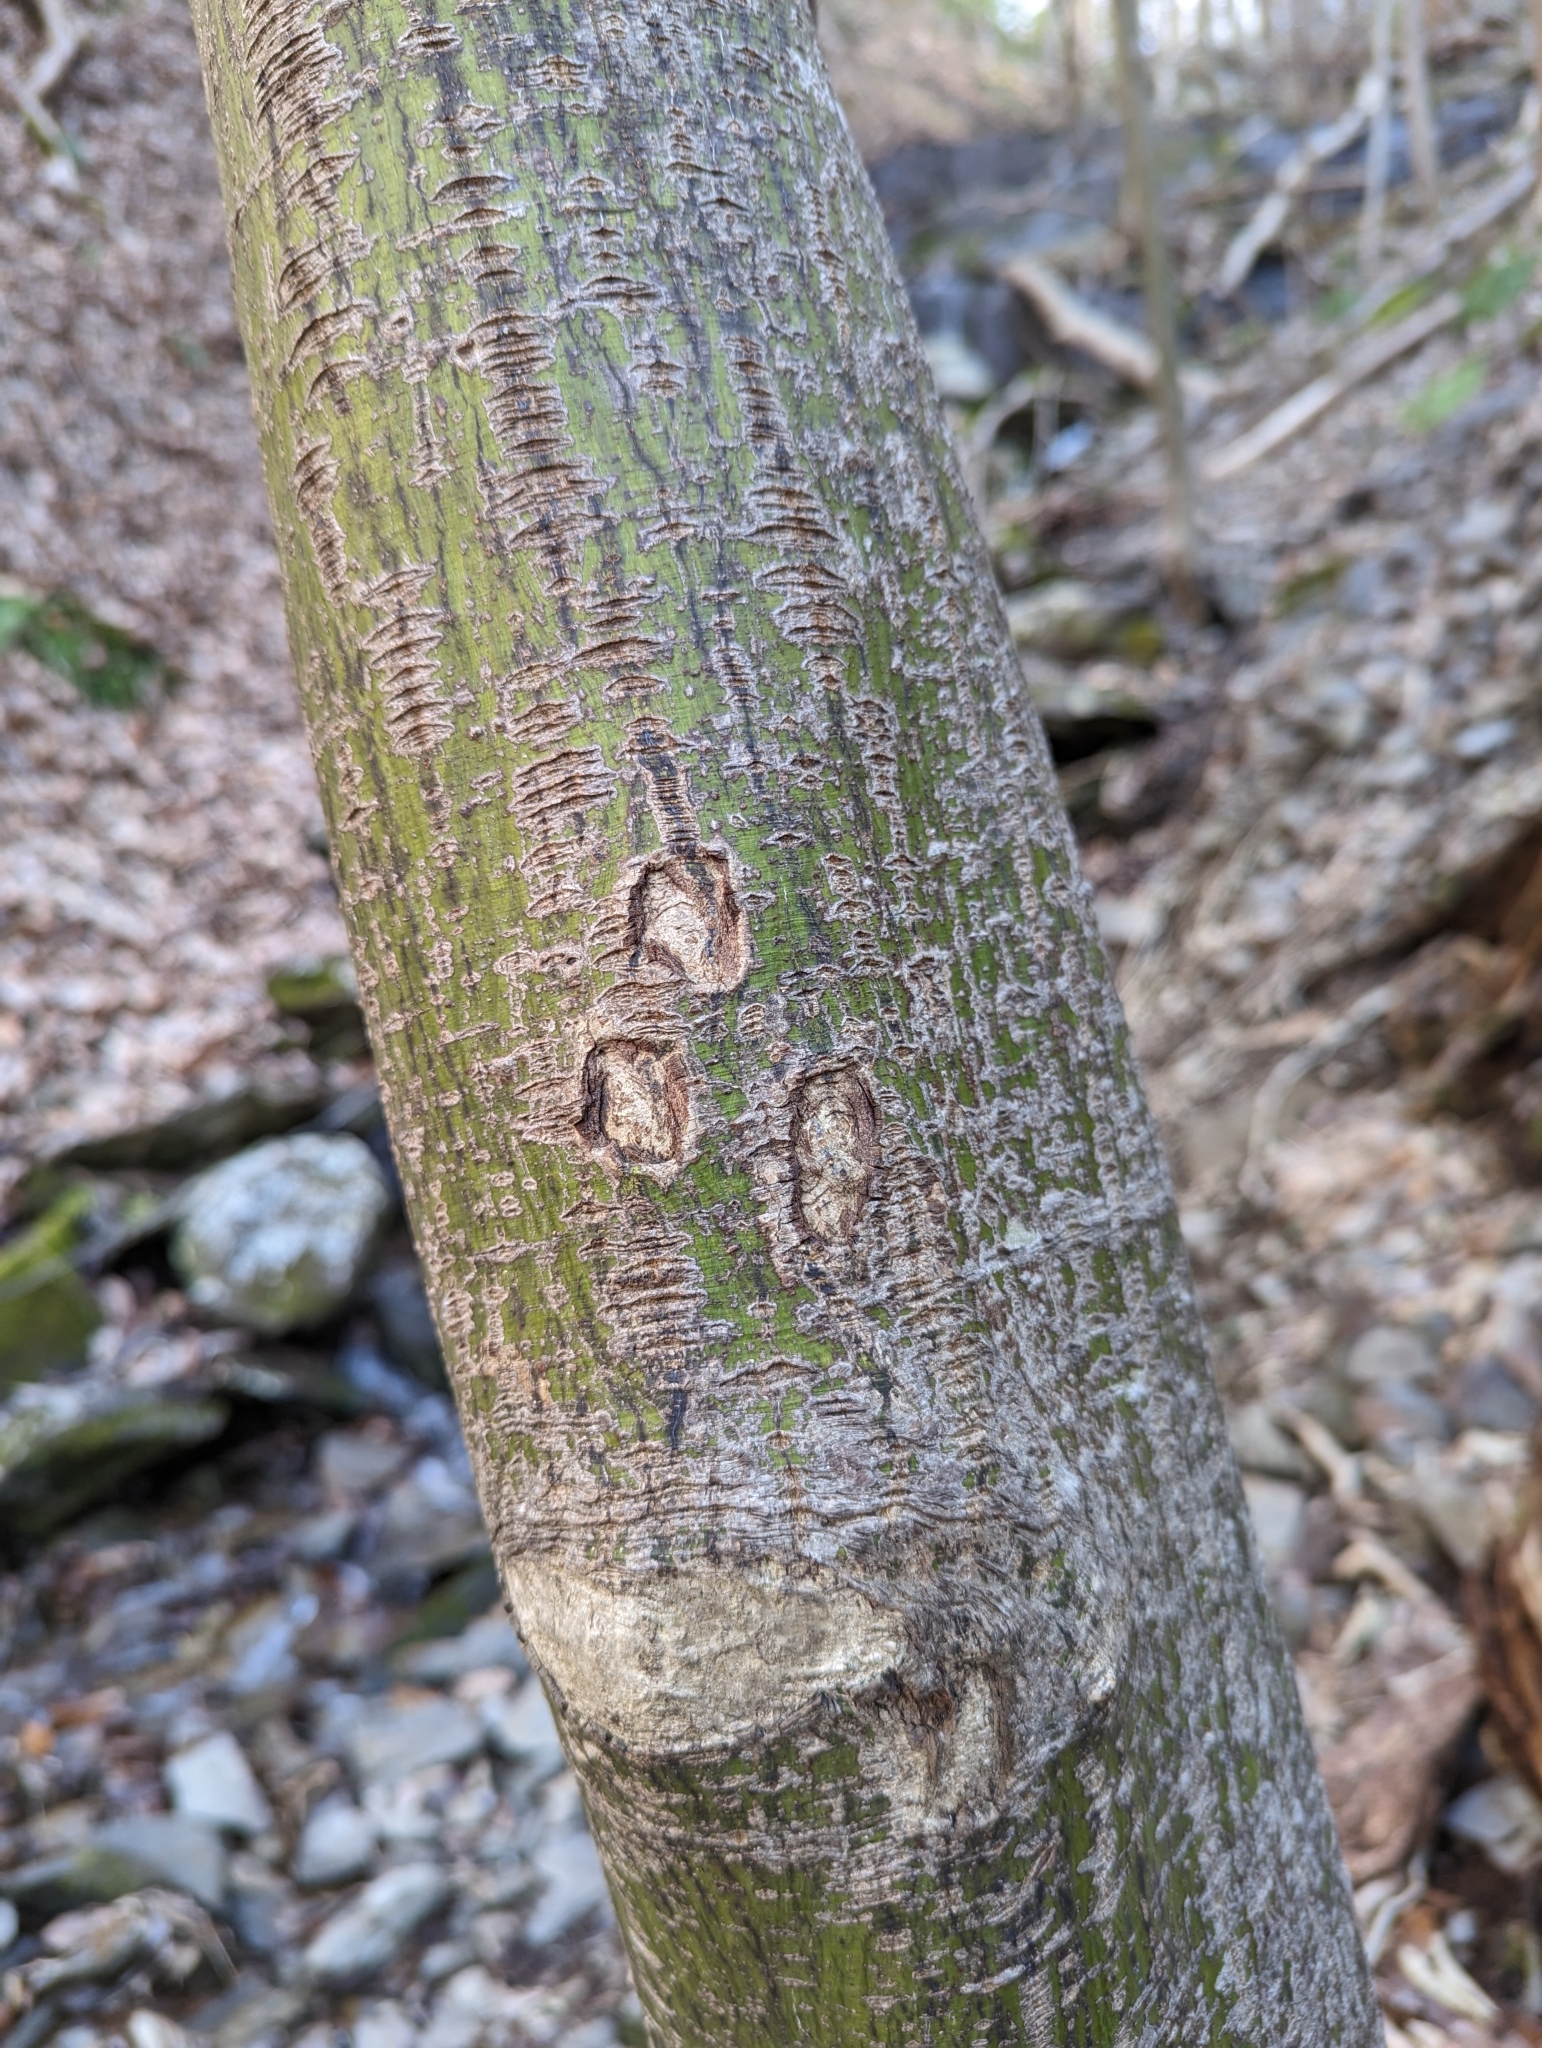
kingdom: Plantae
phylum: Tracheophyta
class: Magnoliopsida
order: Sapindales
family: Sapindaceae
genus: Acer
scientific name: Acer pensylvanicum
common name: Moosewood
